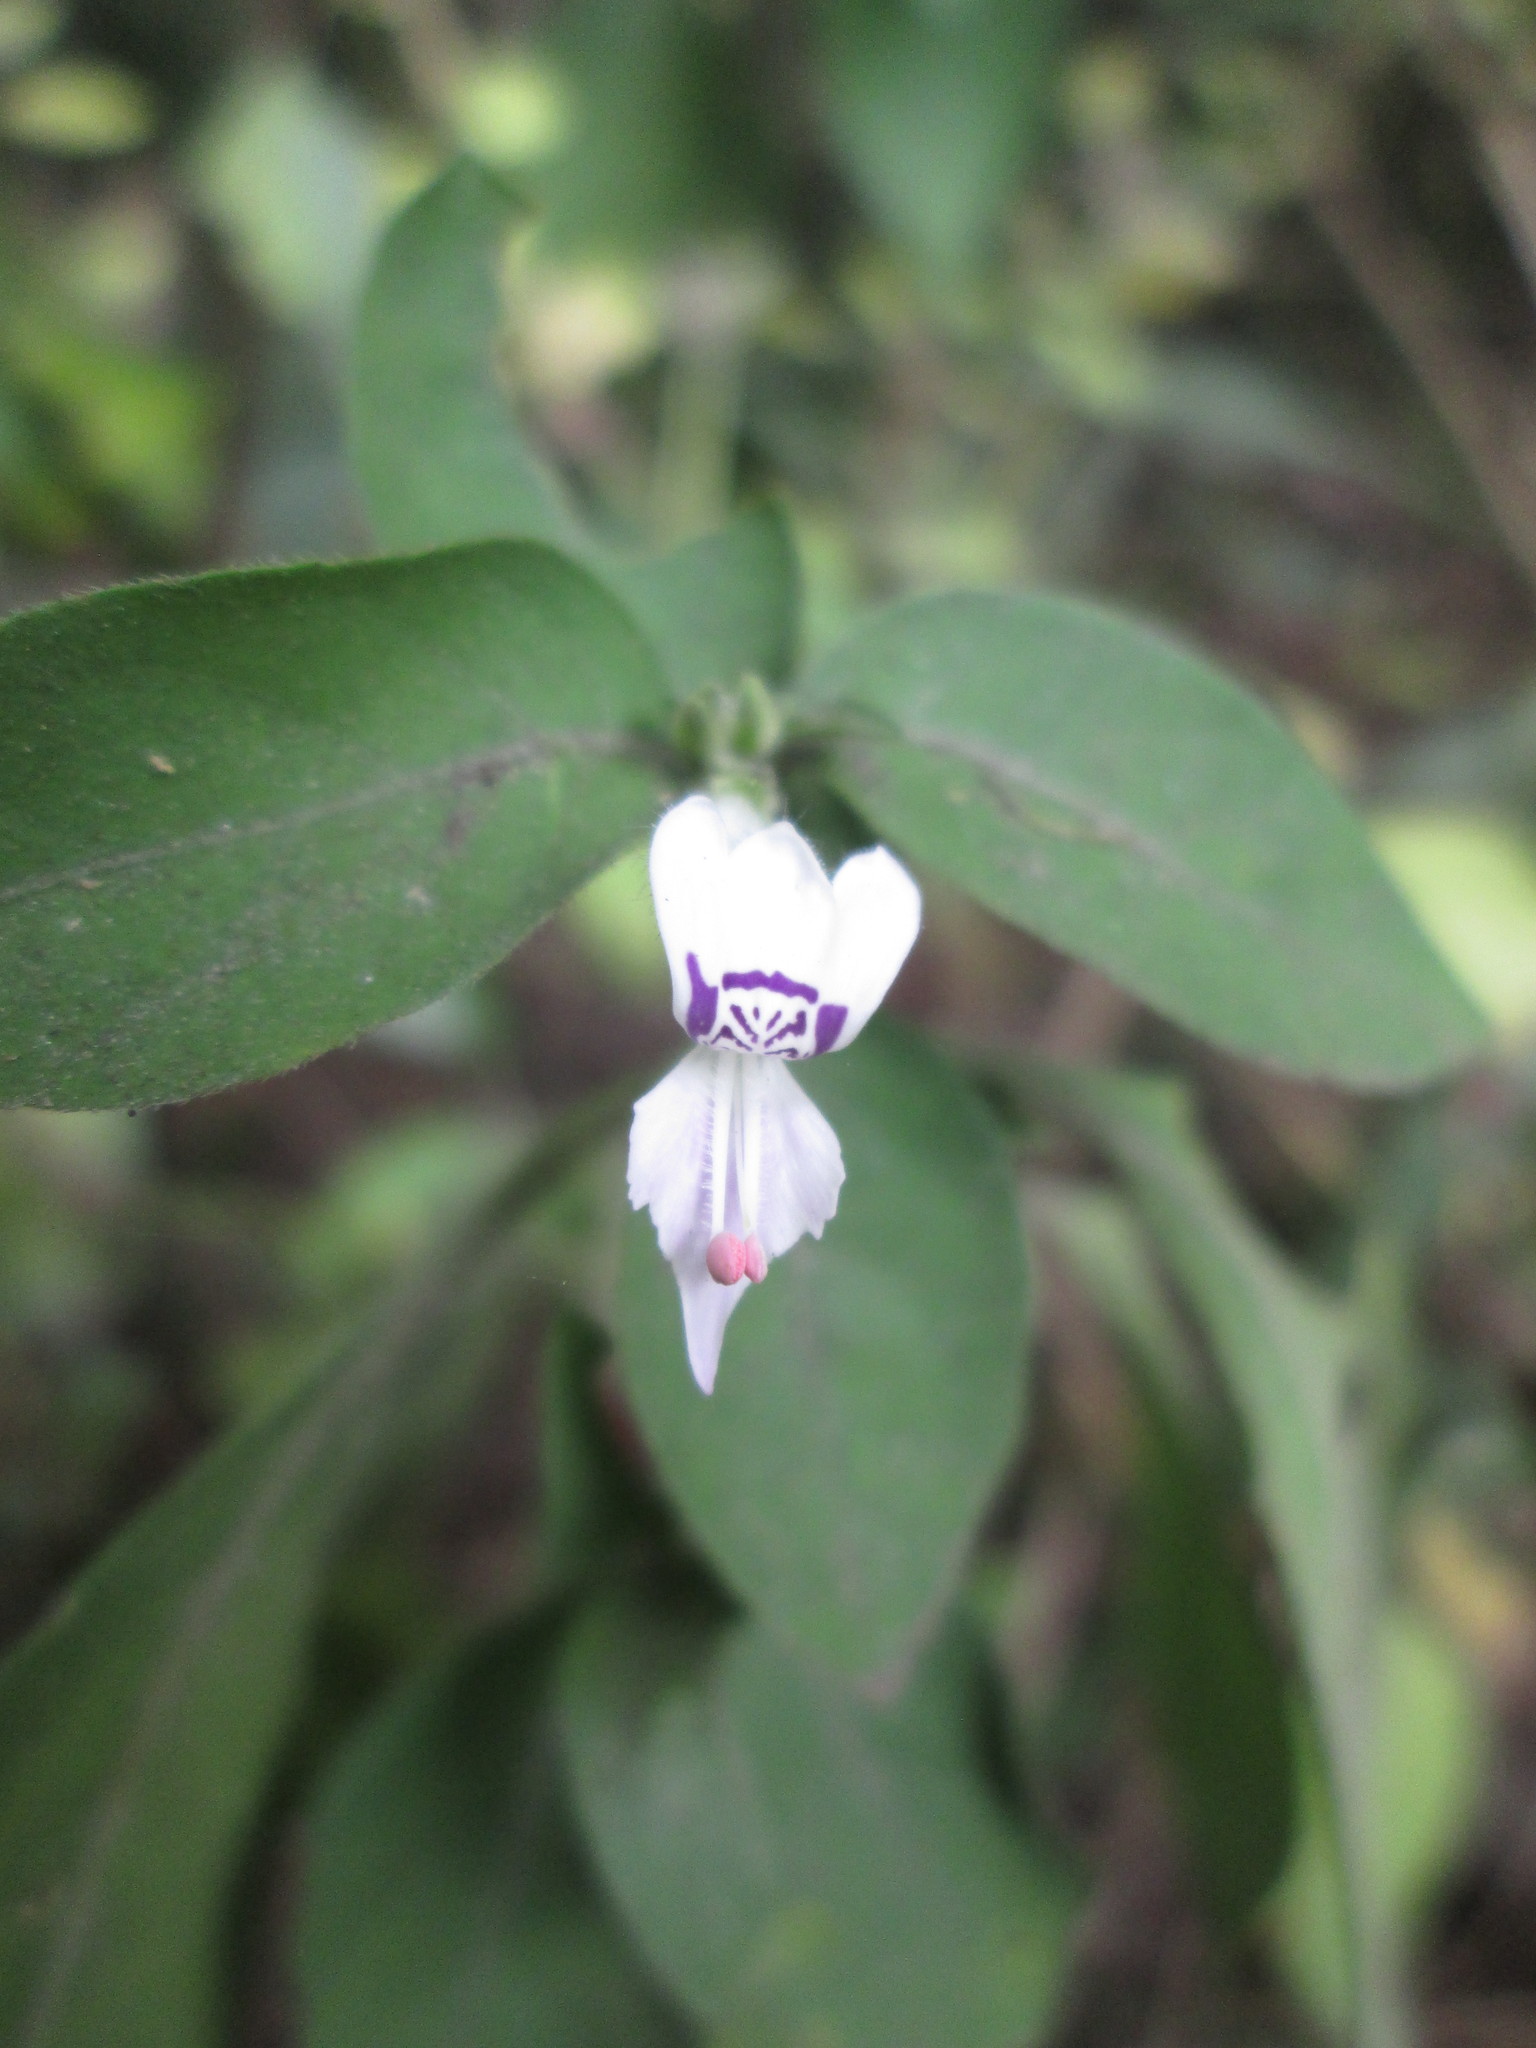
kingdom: Plantae
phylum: Tracheophyta
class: Magnoliopsida
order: Lamiales
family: Acanthaceae
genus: Hypoestes
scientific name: Hypoestes forskaolii
